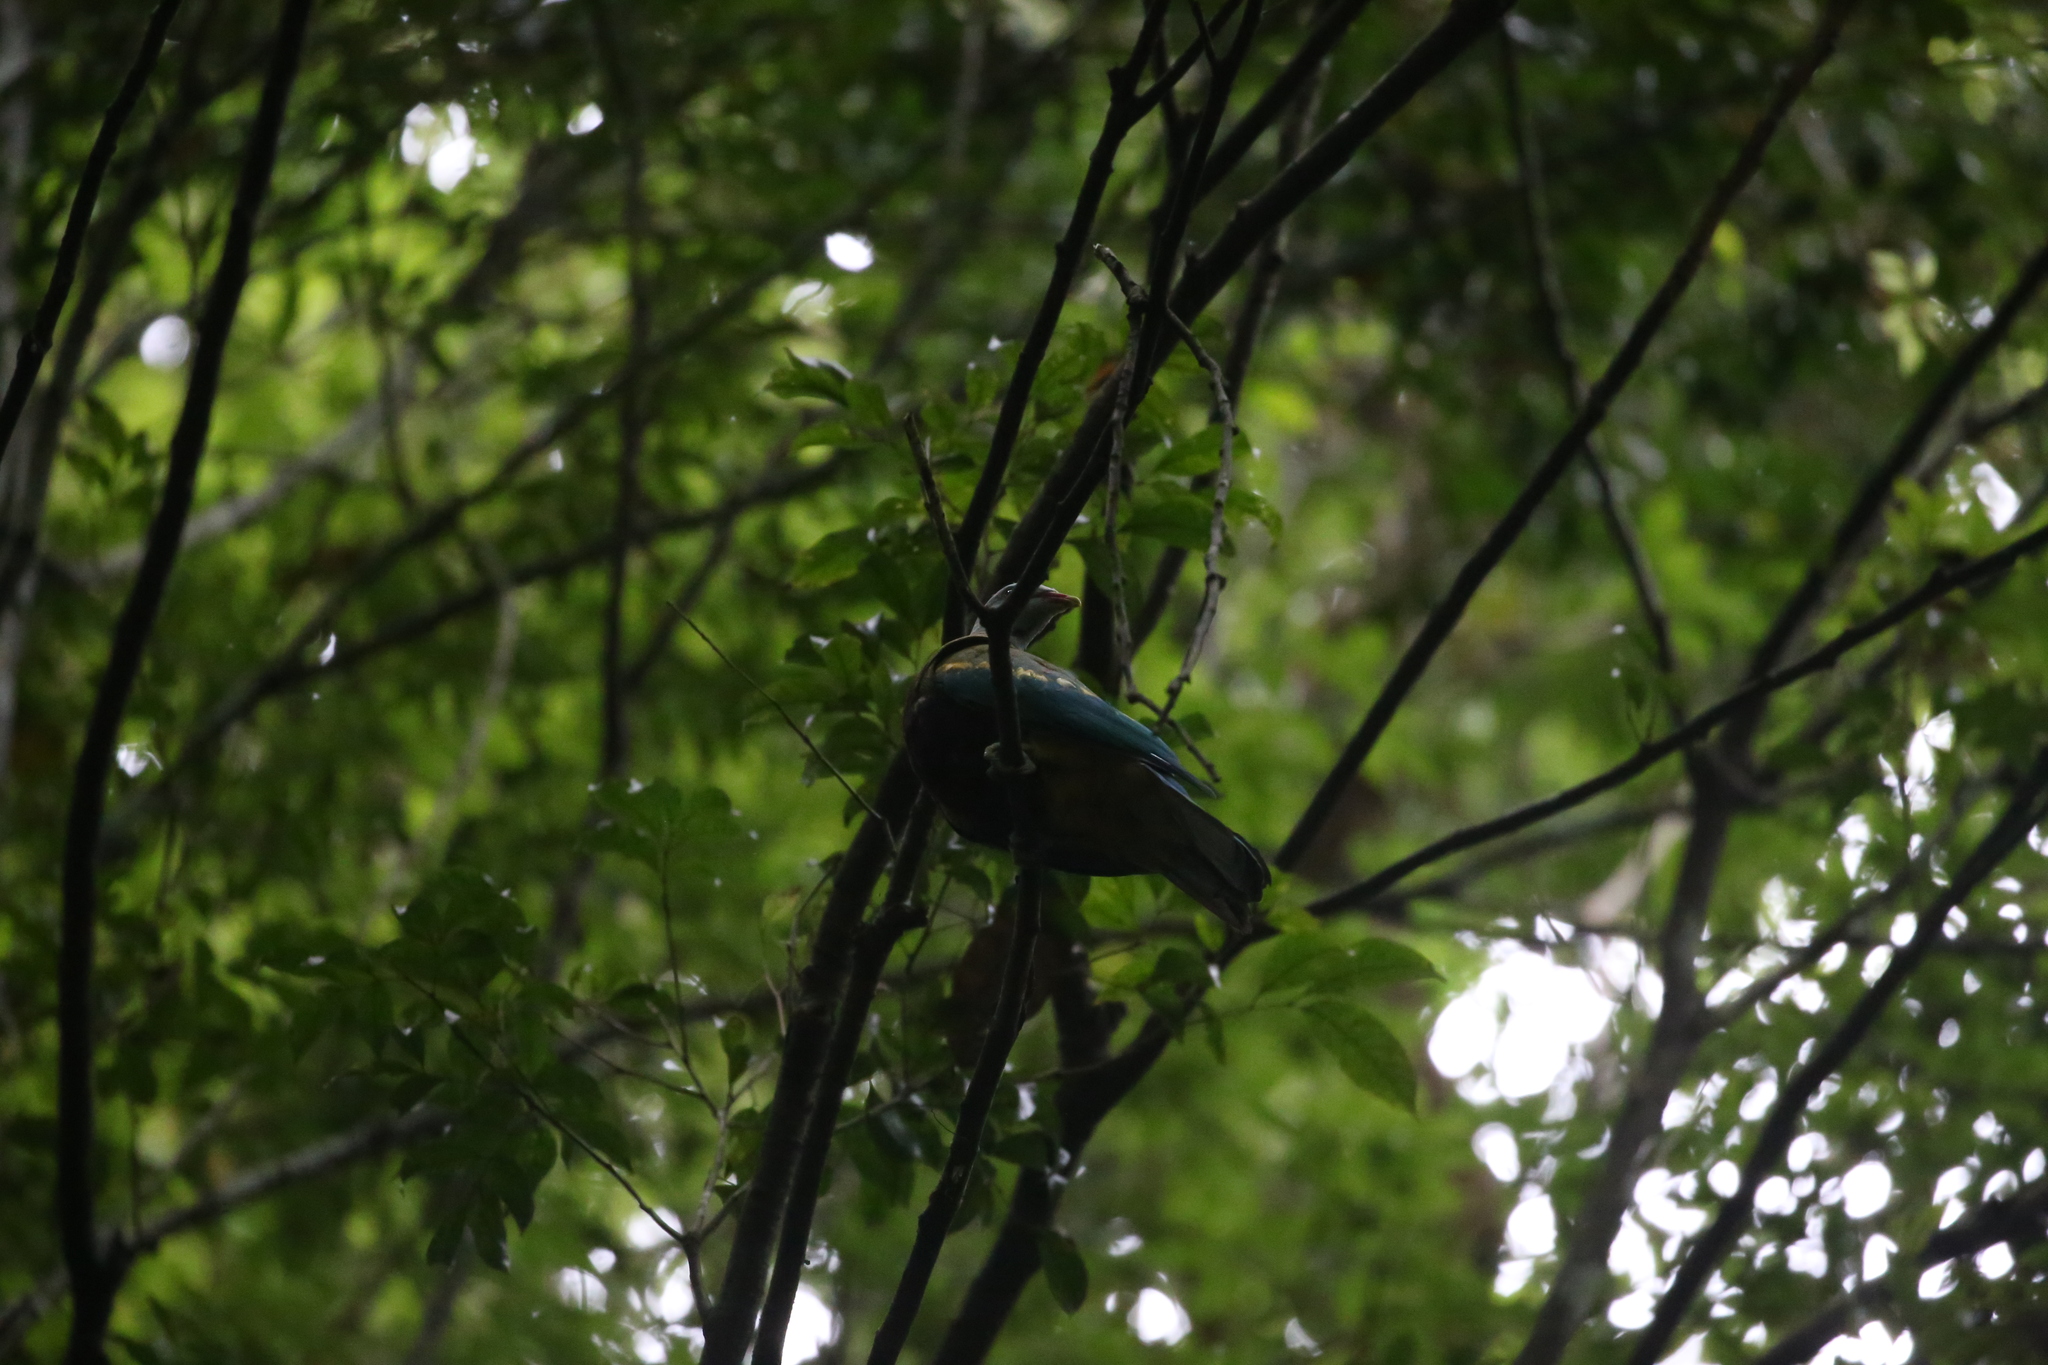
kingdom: Animalia
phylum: Chordata
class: Aves
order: Columbiformes
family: Columbidae
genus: Ptilinopus
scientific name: Ptilinopus magnificus
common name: Wompoo fruit dove
